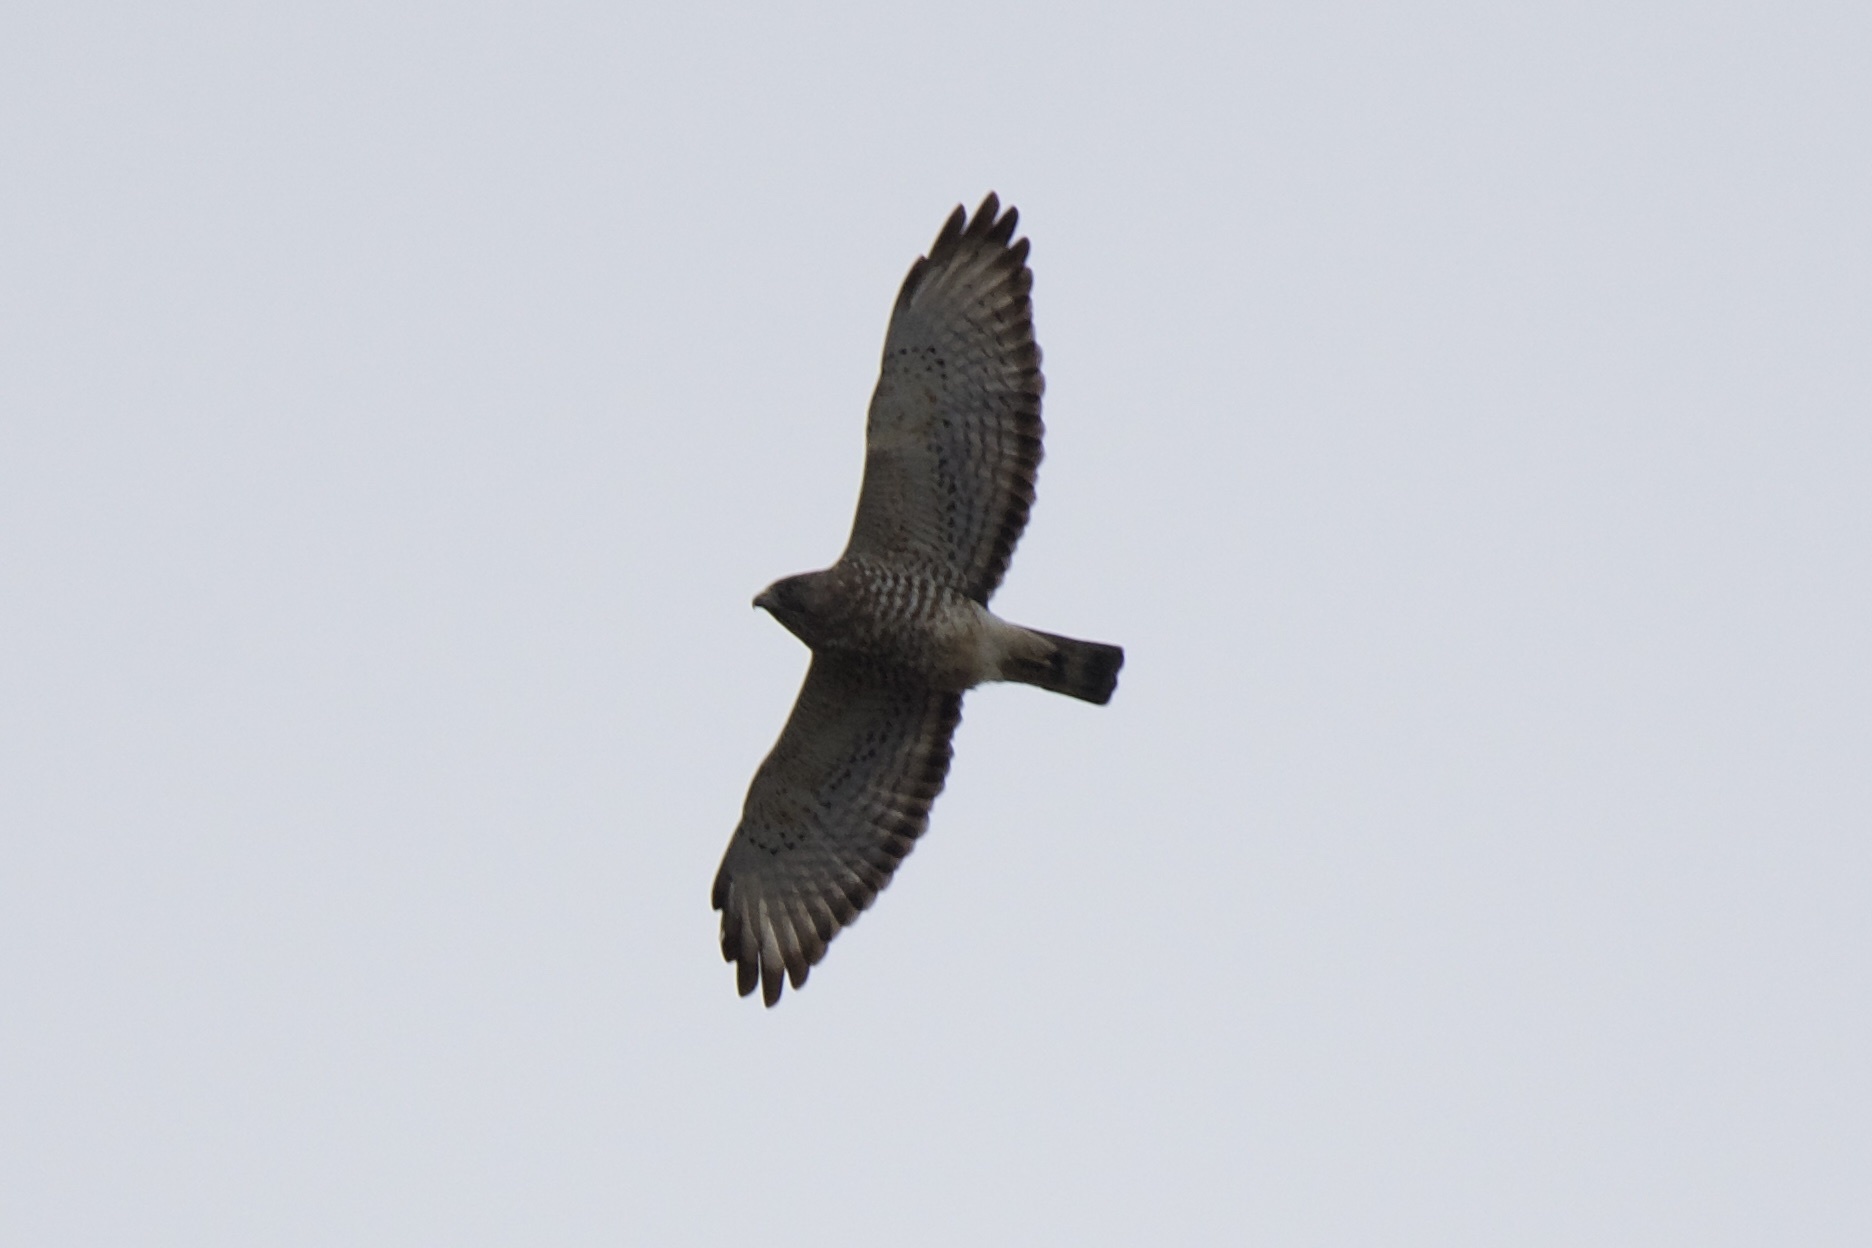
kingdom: Animalia
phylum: Chordata
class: Aves
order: Accipitriformes
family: Accipitridae
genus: Buteo
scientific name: Buteo platypterus
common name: Broad-winged hawk
